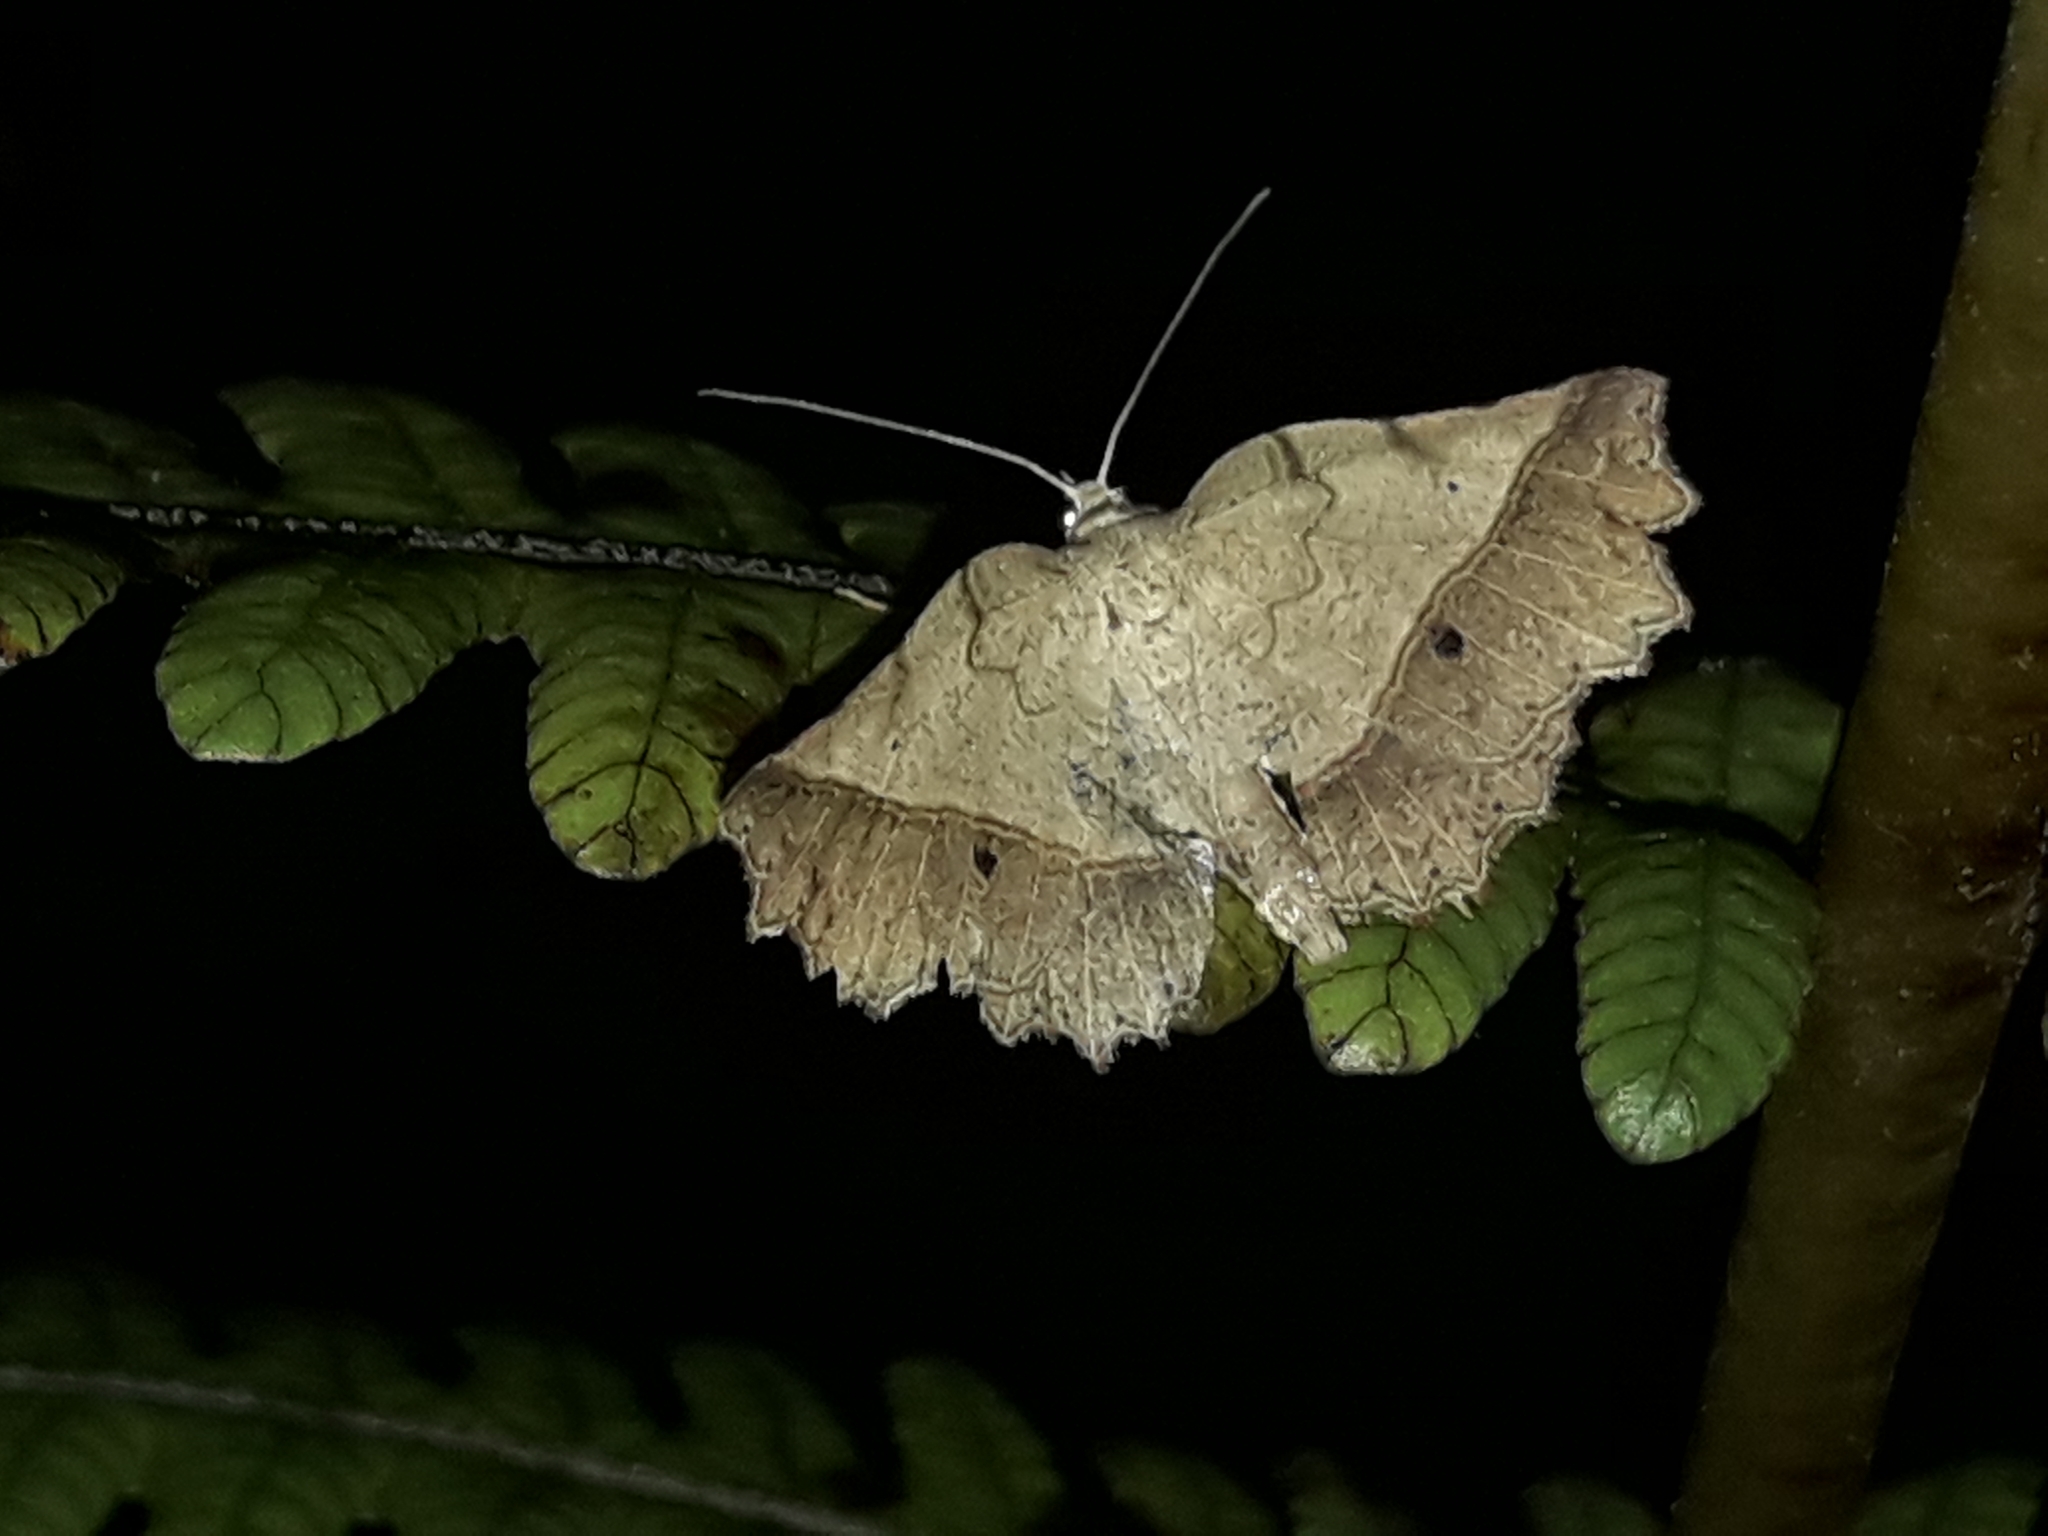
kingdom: Animalia
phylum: Arthropoda
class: Insecta
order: Lepidoptera
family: Geometridae
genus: Ischalis
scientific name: Ischalis gallaria
